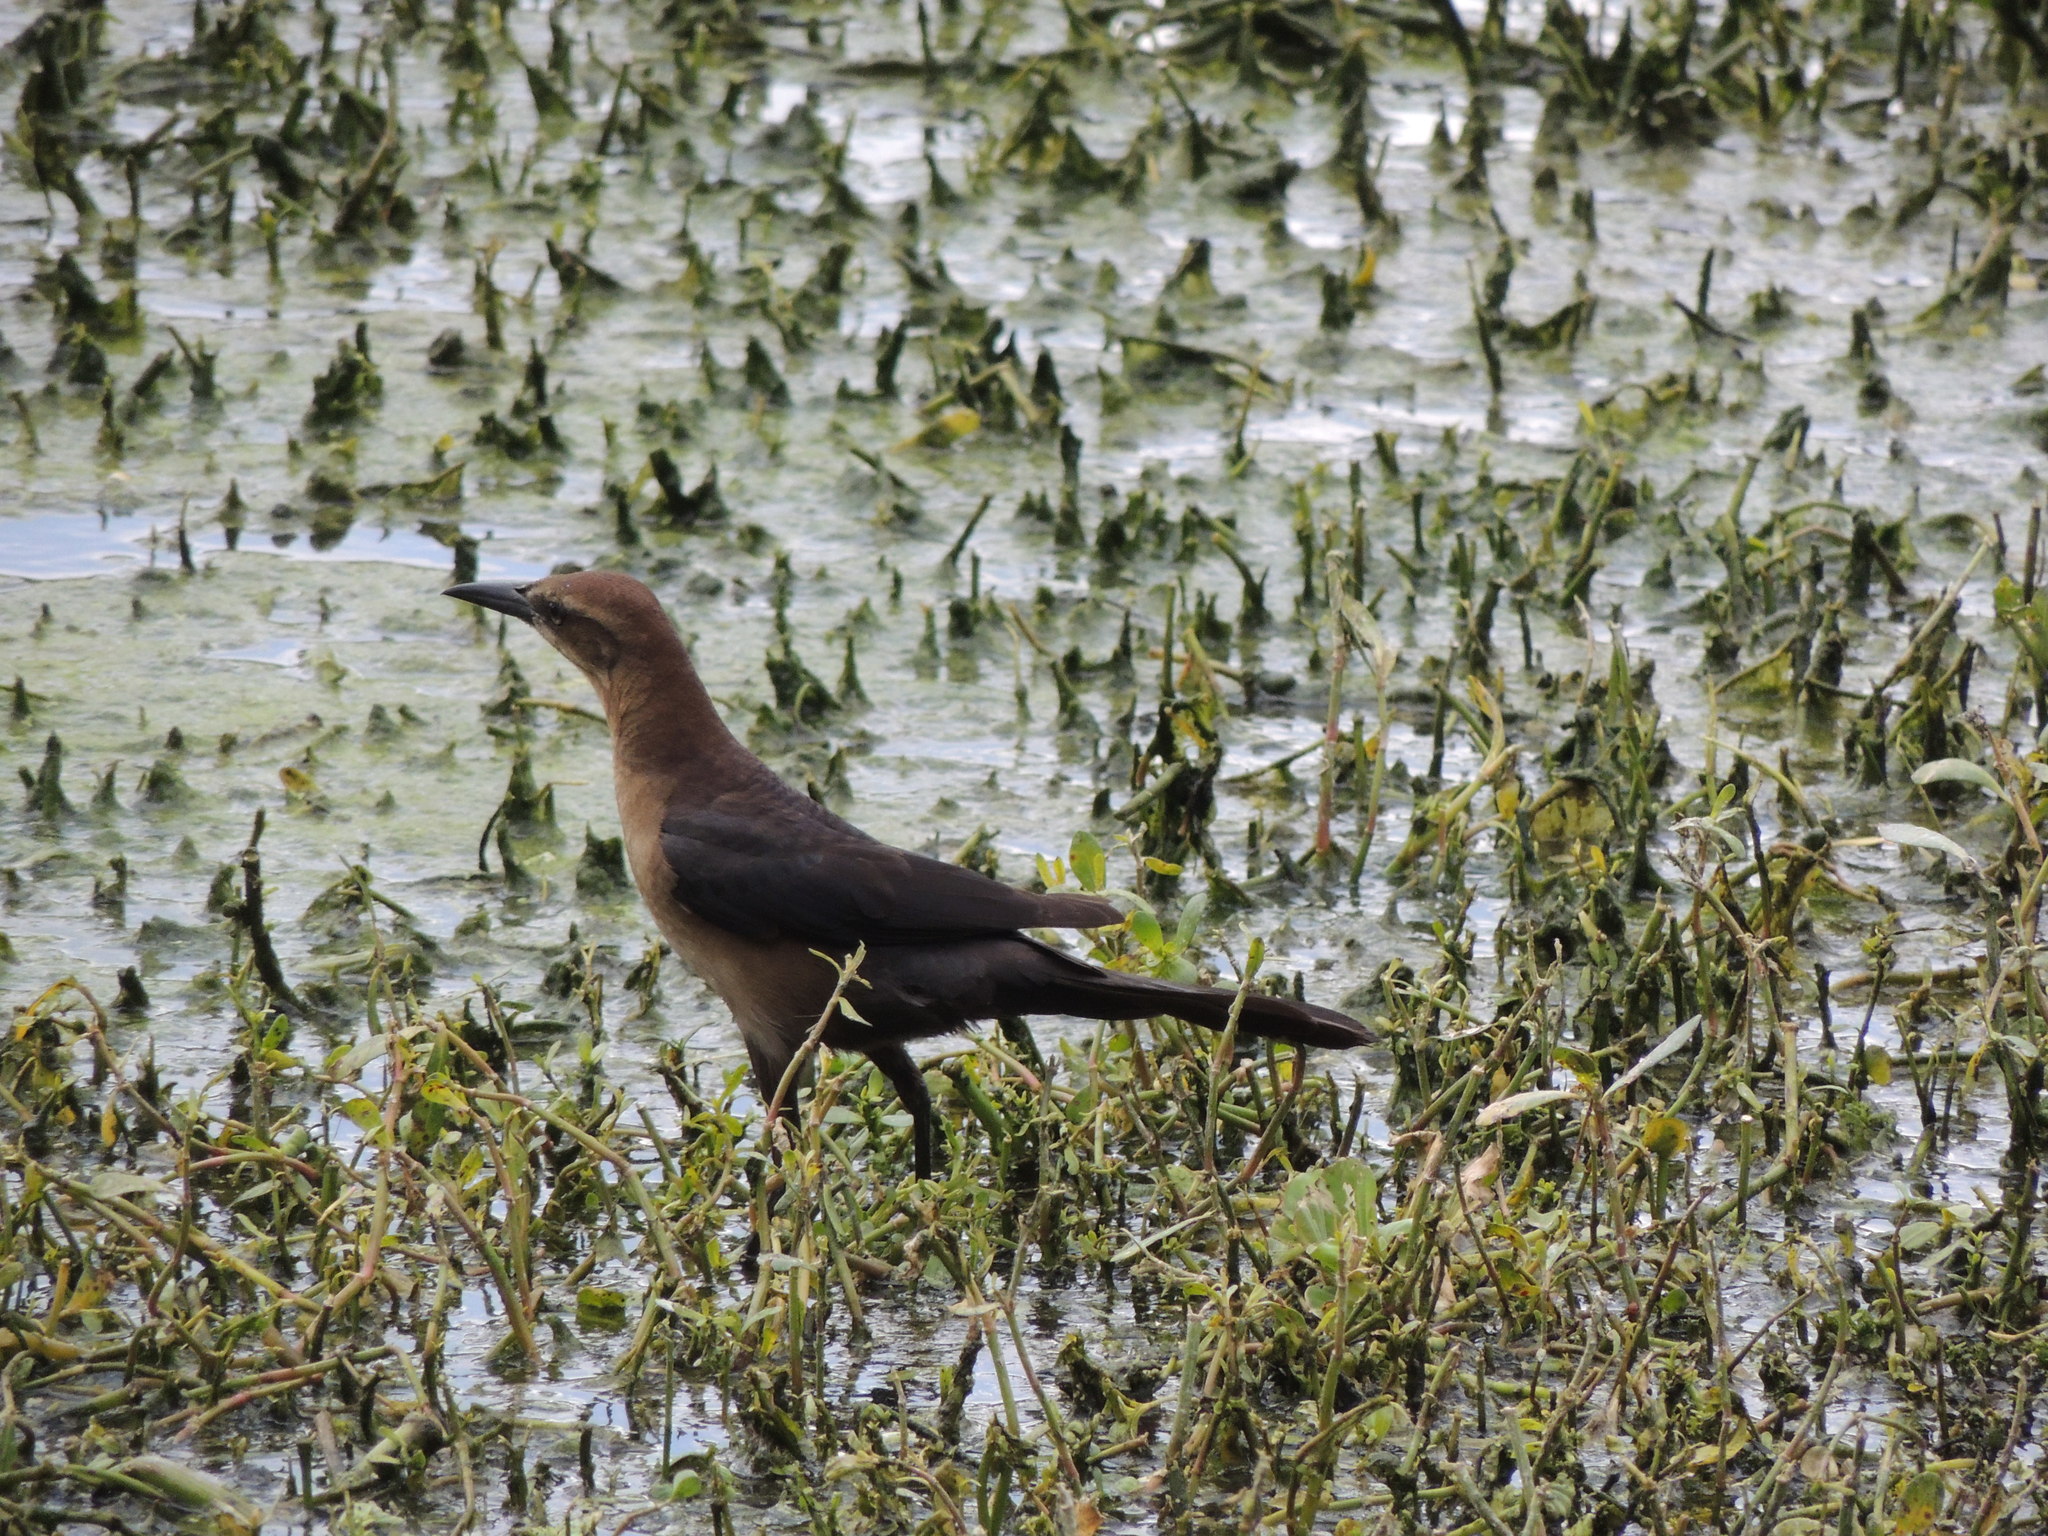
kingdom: Animalia
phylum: Chordata
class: Aves
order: Passeriformes
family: Icteridae
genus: Quiscalus
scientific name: Quiscalus major
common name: Boat-tailed grackle
